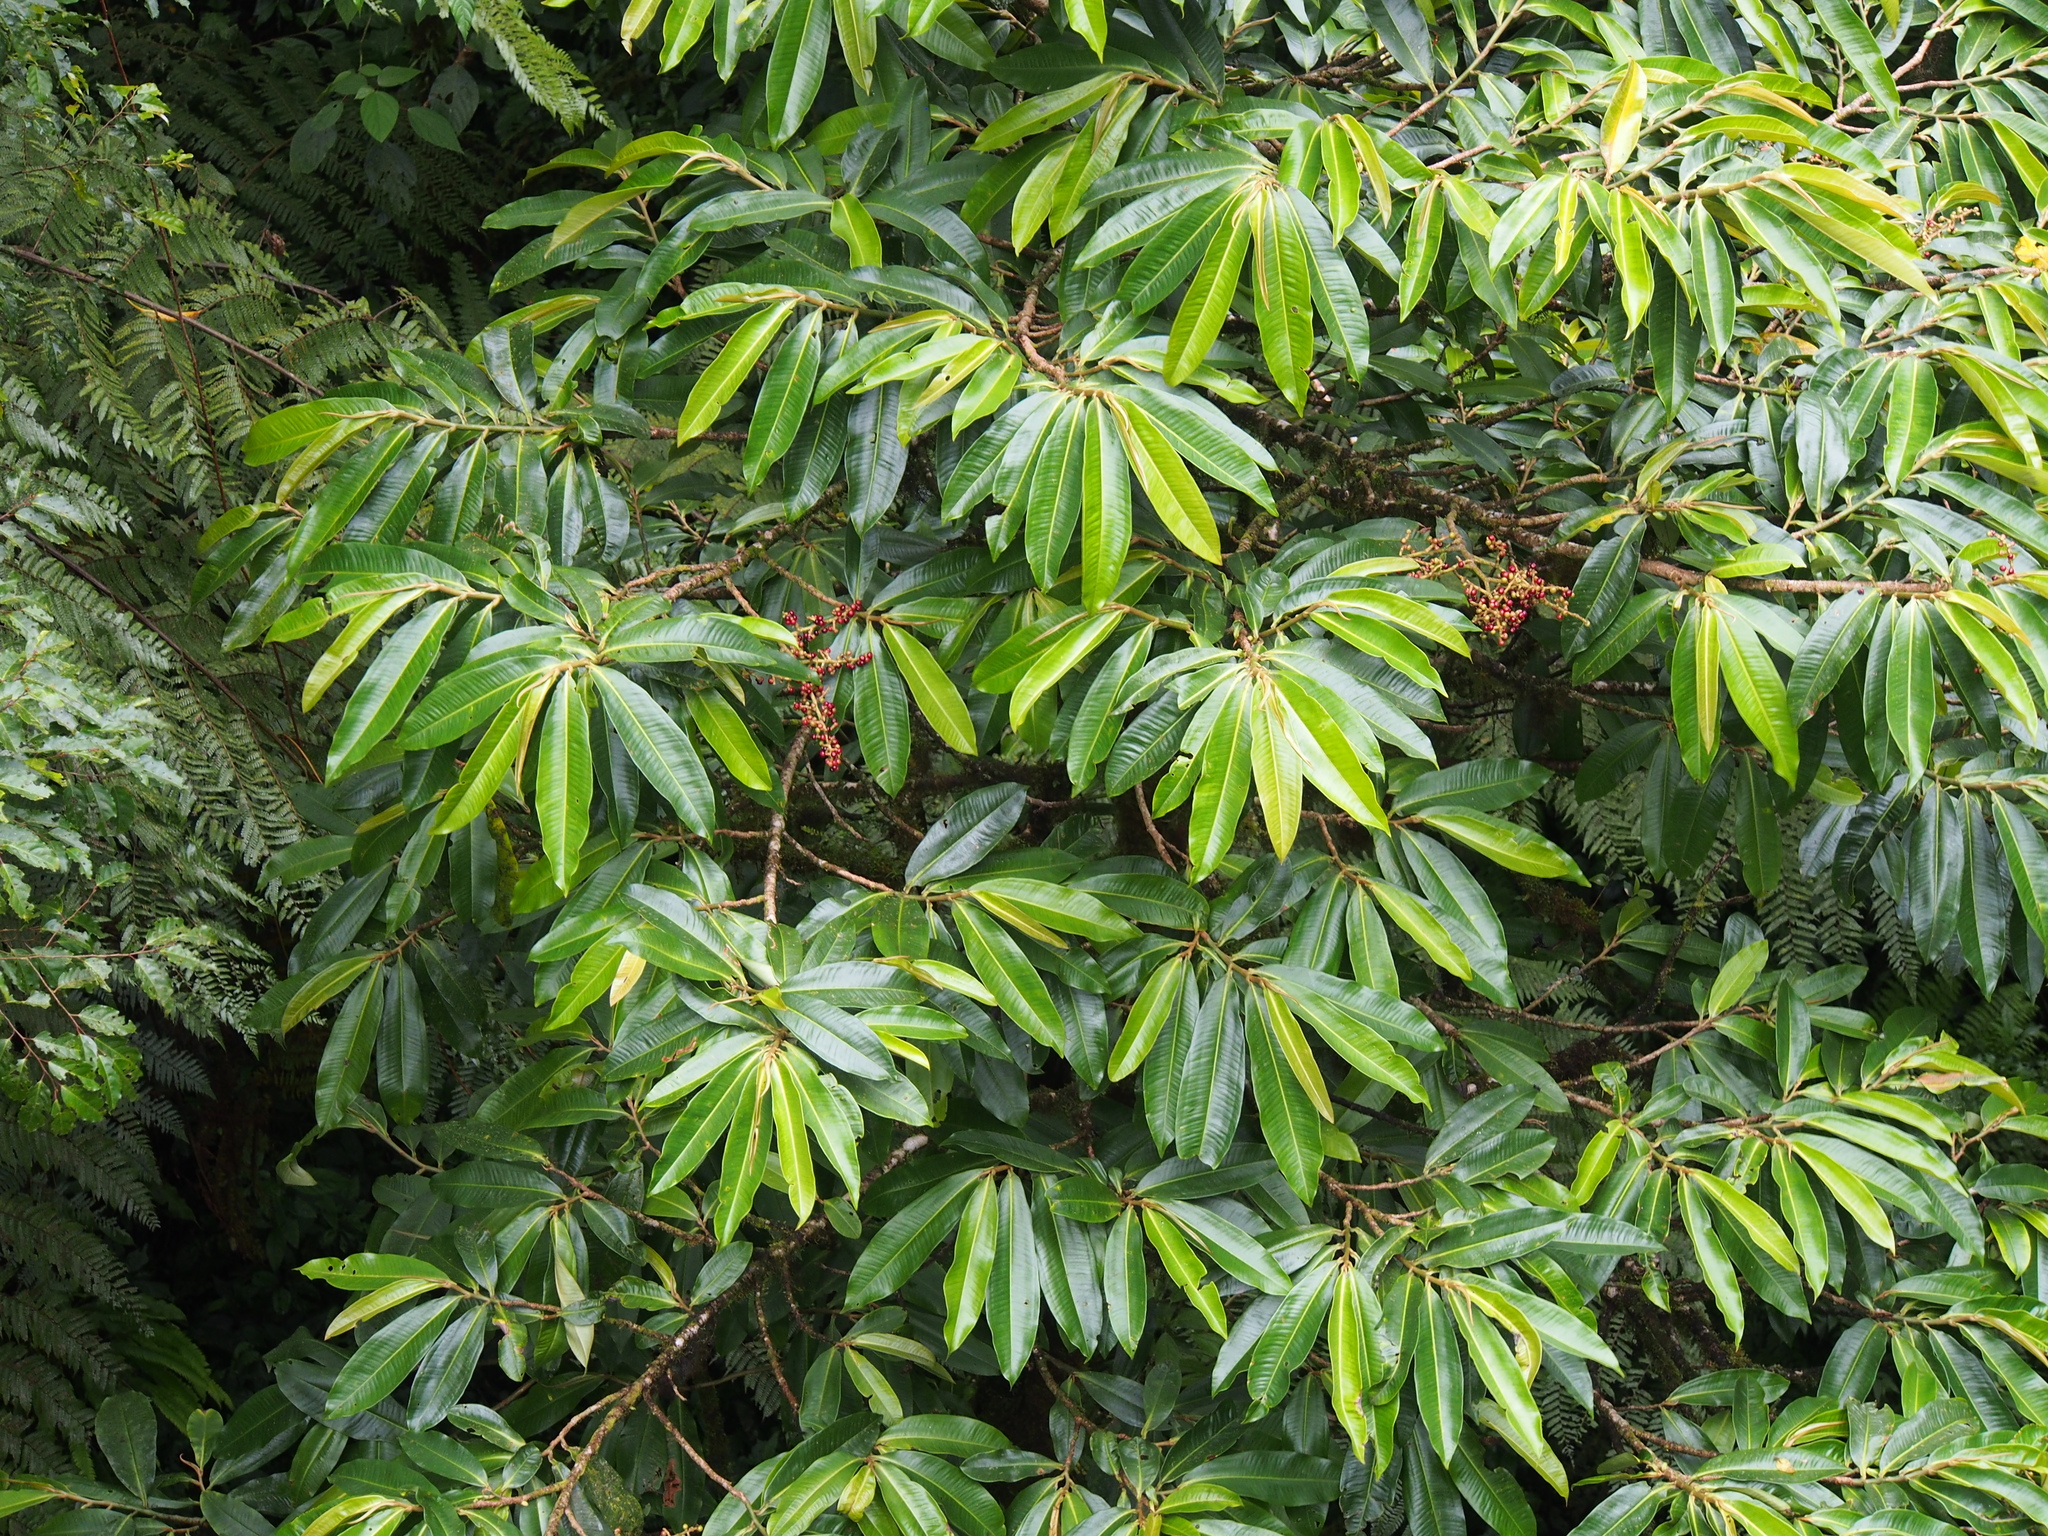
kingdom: Plantae
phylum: Tracheophyta
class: Magnoliopsida
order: Ericales
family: Primulaceae
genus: Ardisia
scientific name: Ardisia palmana
